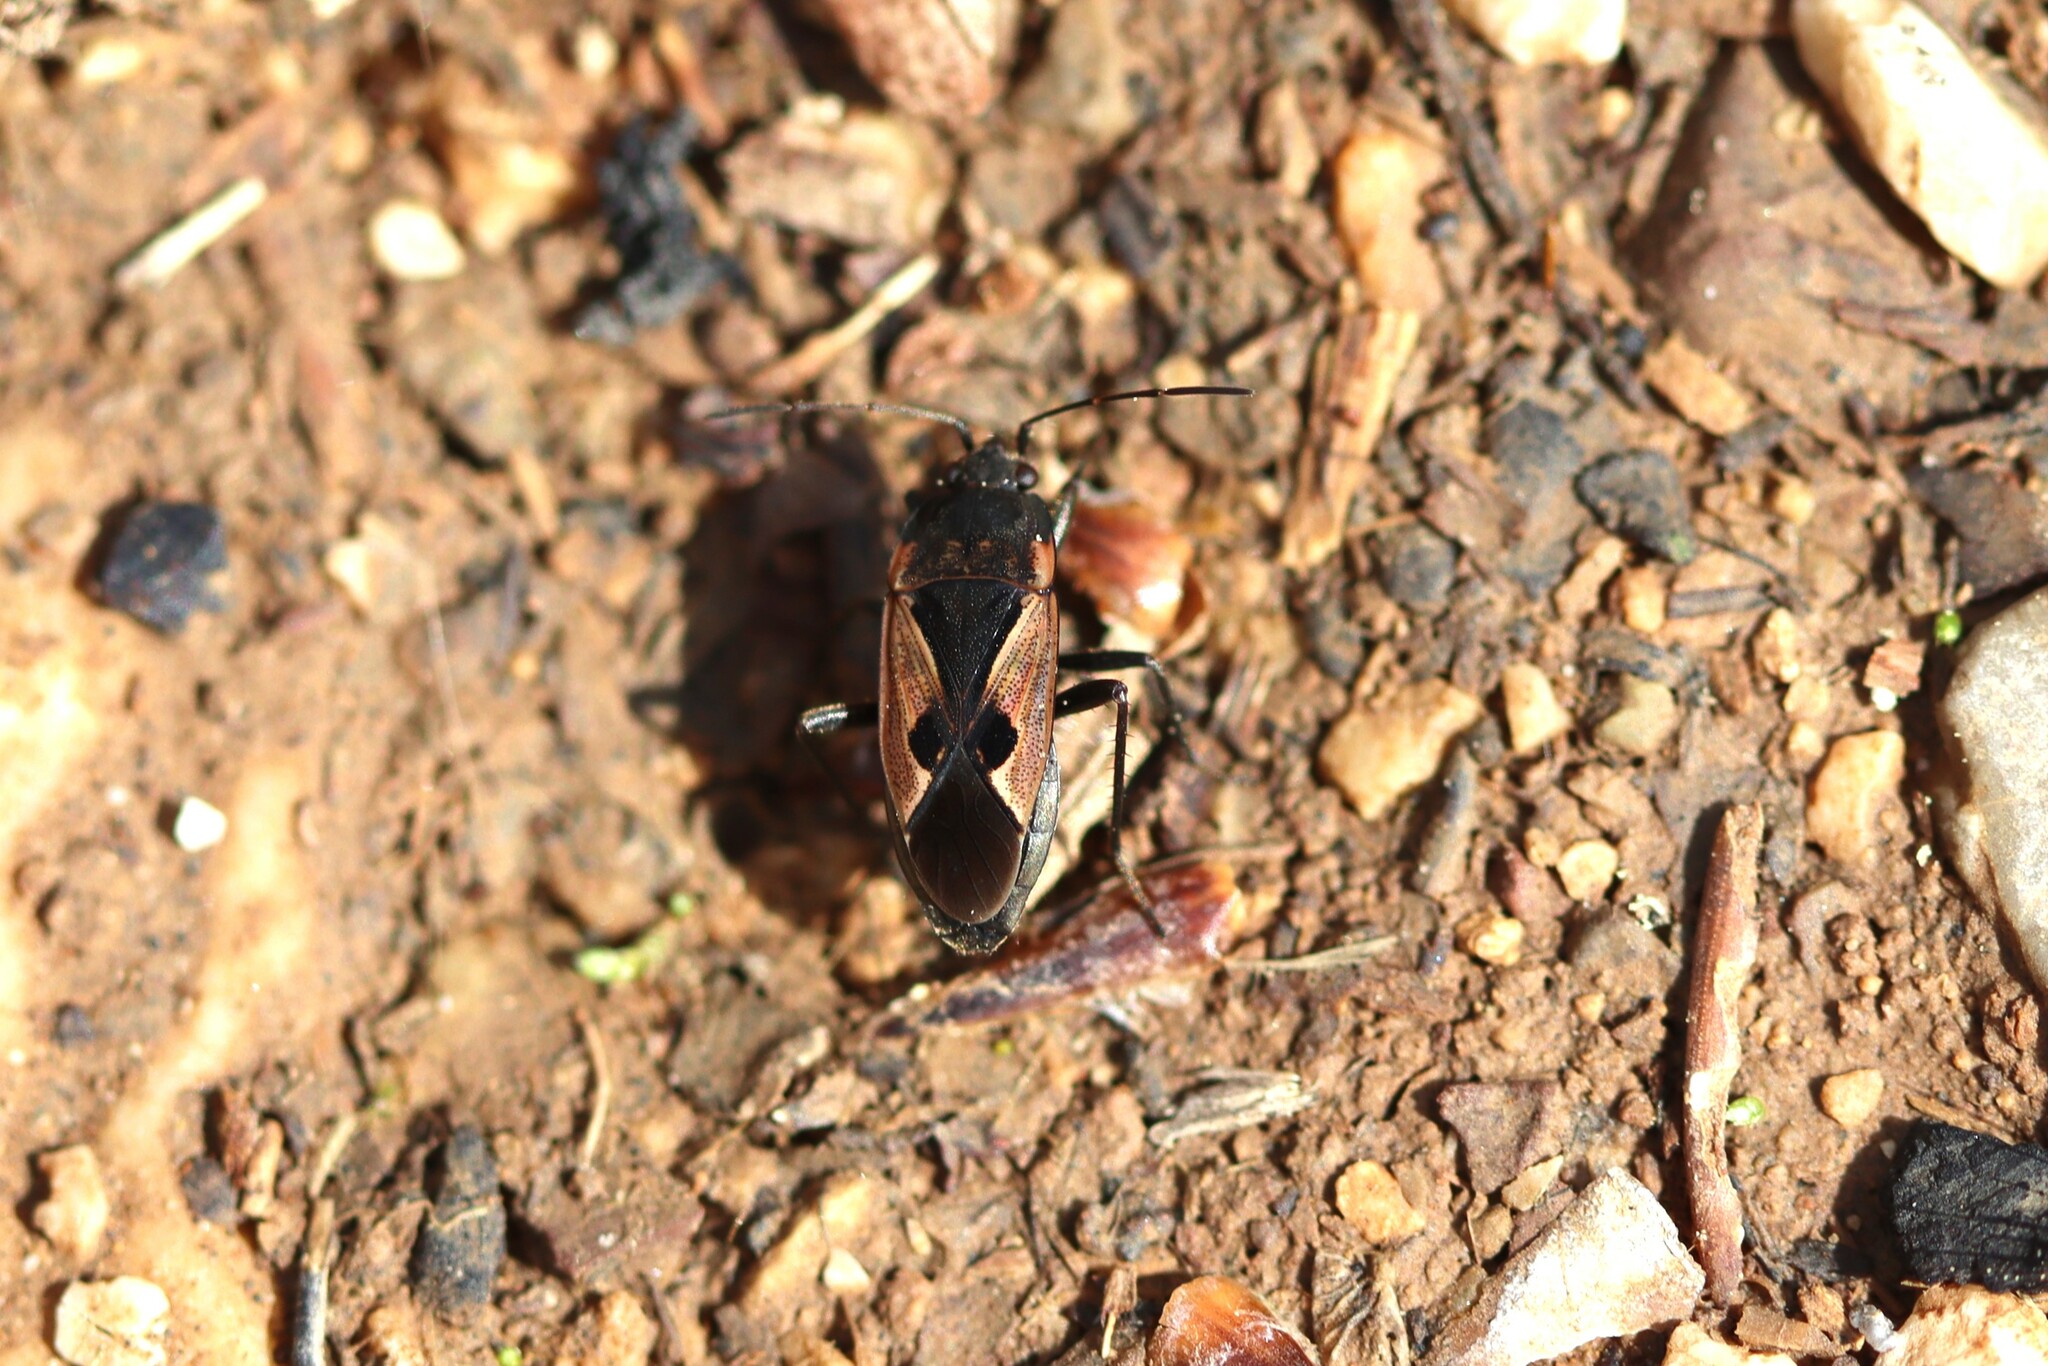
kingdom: Animalia
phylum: Arthropoda
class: Insecta
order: Hemiptera
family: Rhyparochromidae
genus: Rhyparochromus
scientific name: Rhyparochromus sanguineus
